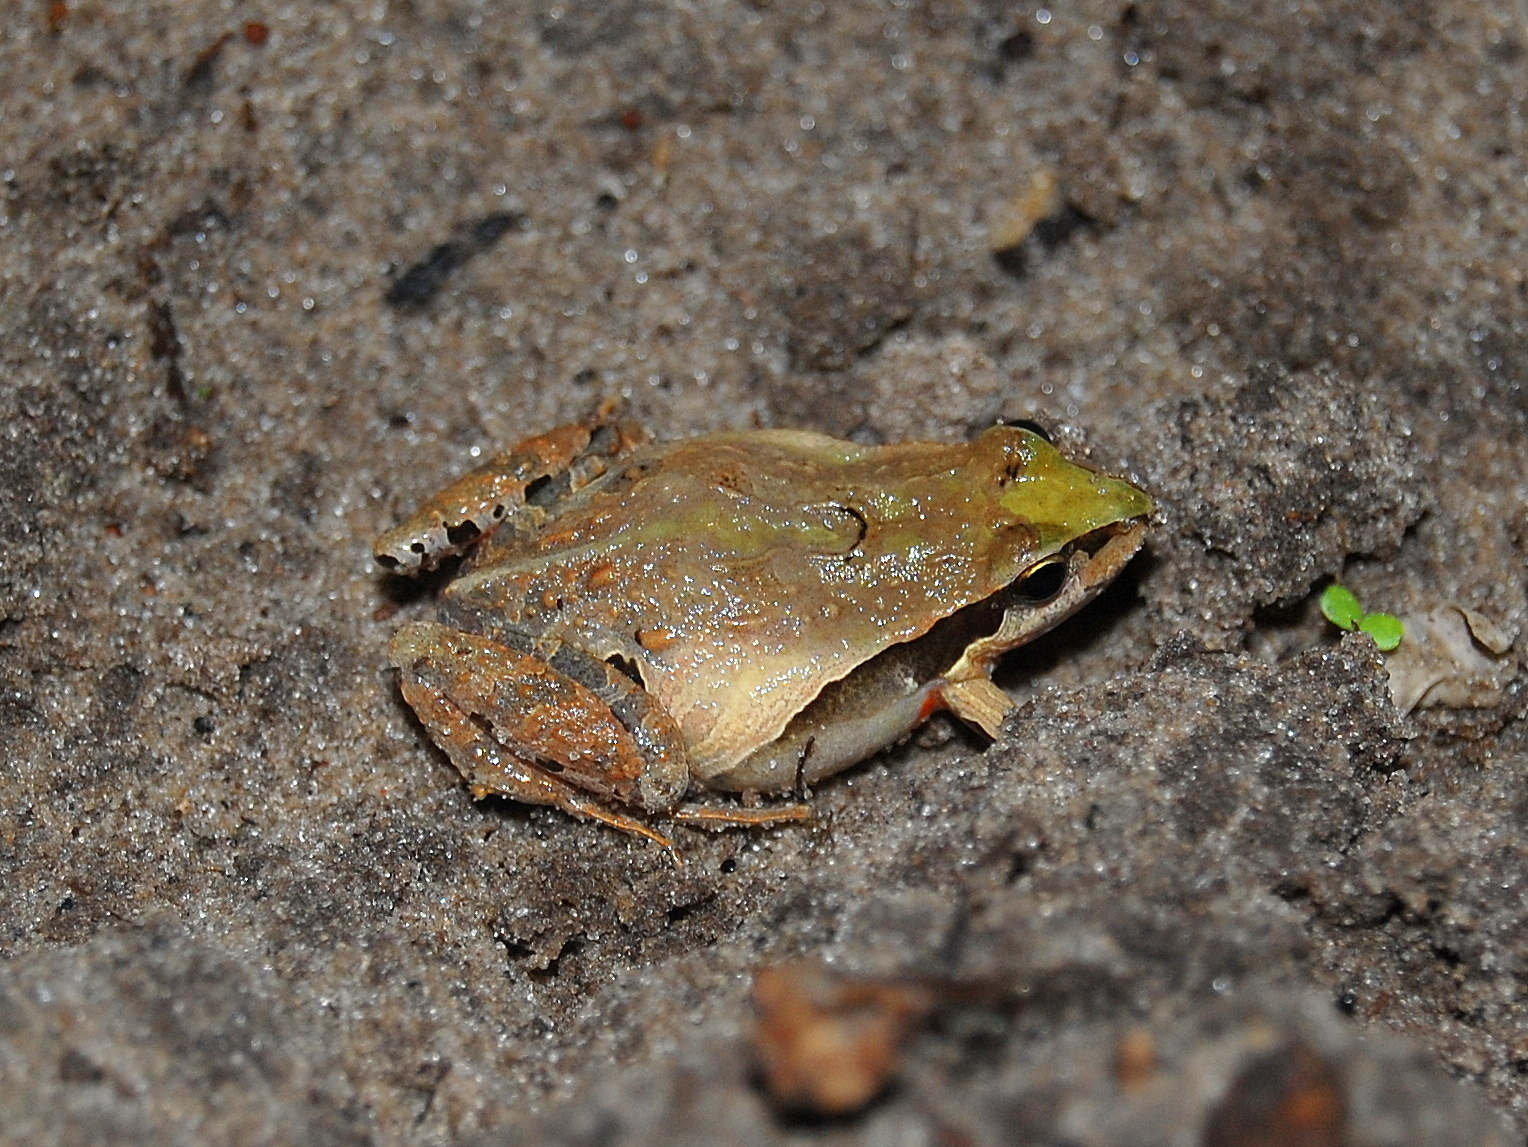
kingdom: Animalia
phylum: Chordata
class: Amphibia
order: Anura
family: Leptodactylidae
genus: Physalaemus
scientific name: Physalaemus gracilis
